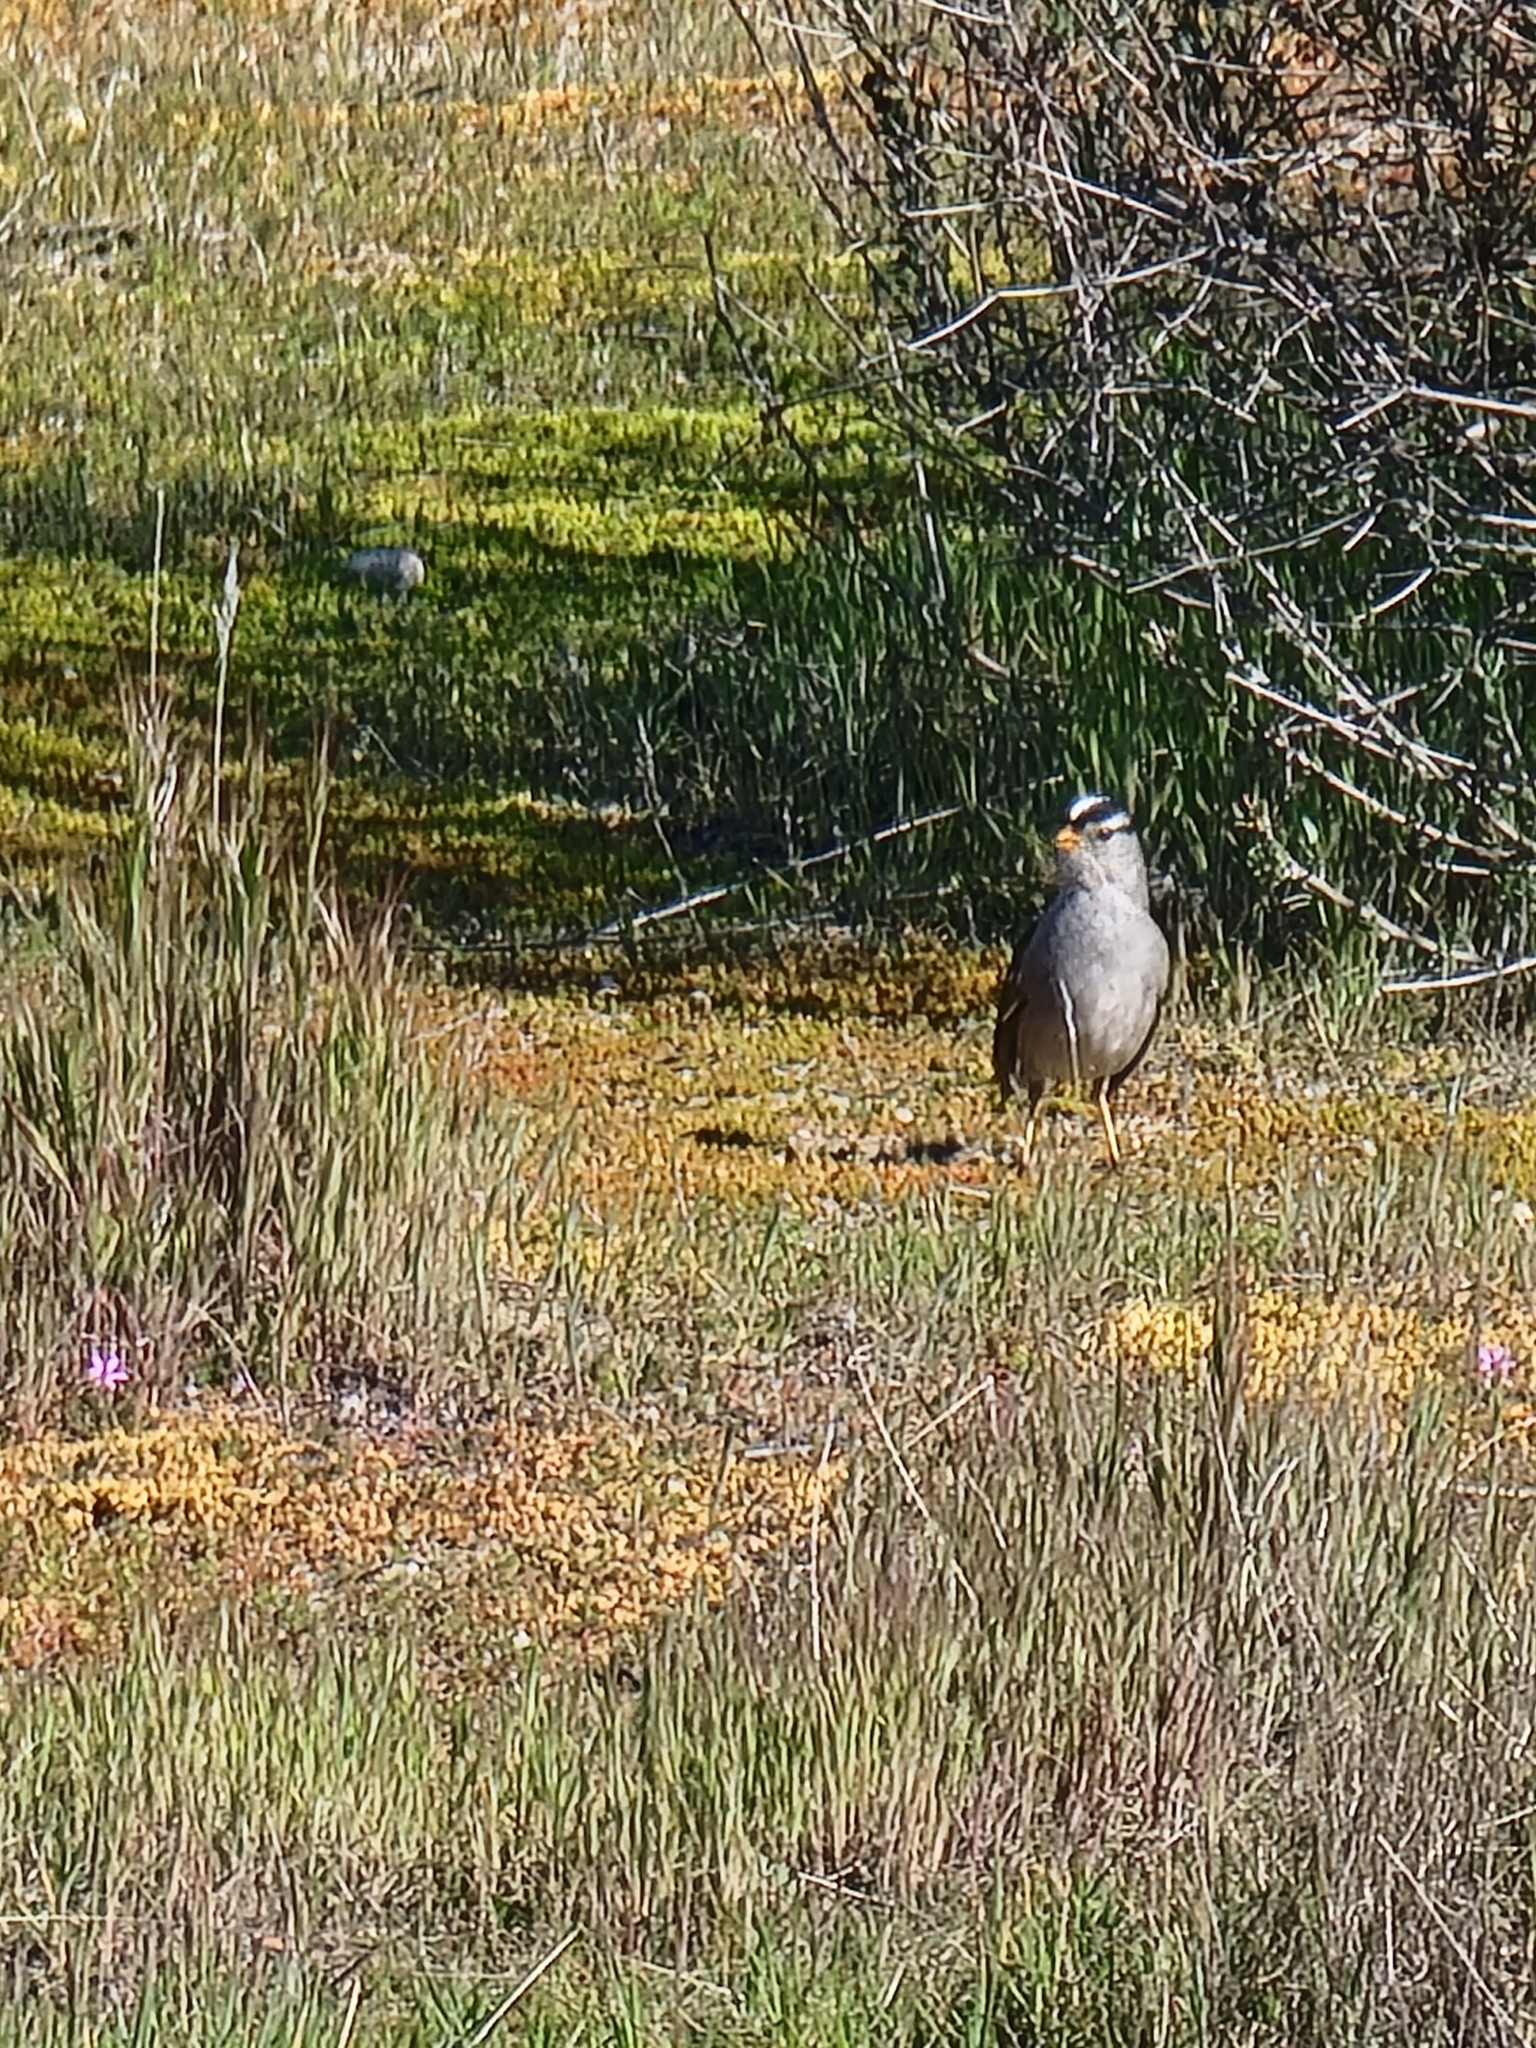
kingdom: Animalia
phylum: Chordata
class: Aves
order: Passeriformes
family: Passerellidae
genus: Zonotrichia
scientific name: Zonotrichia leucophrys
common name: White-crowned sparrow
